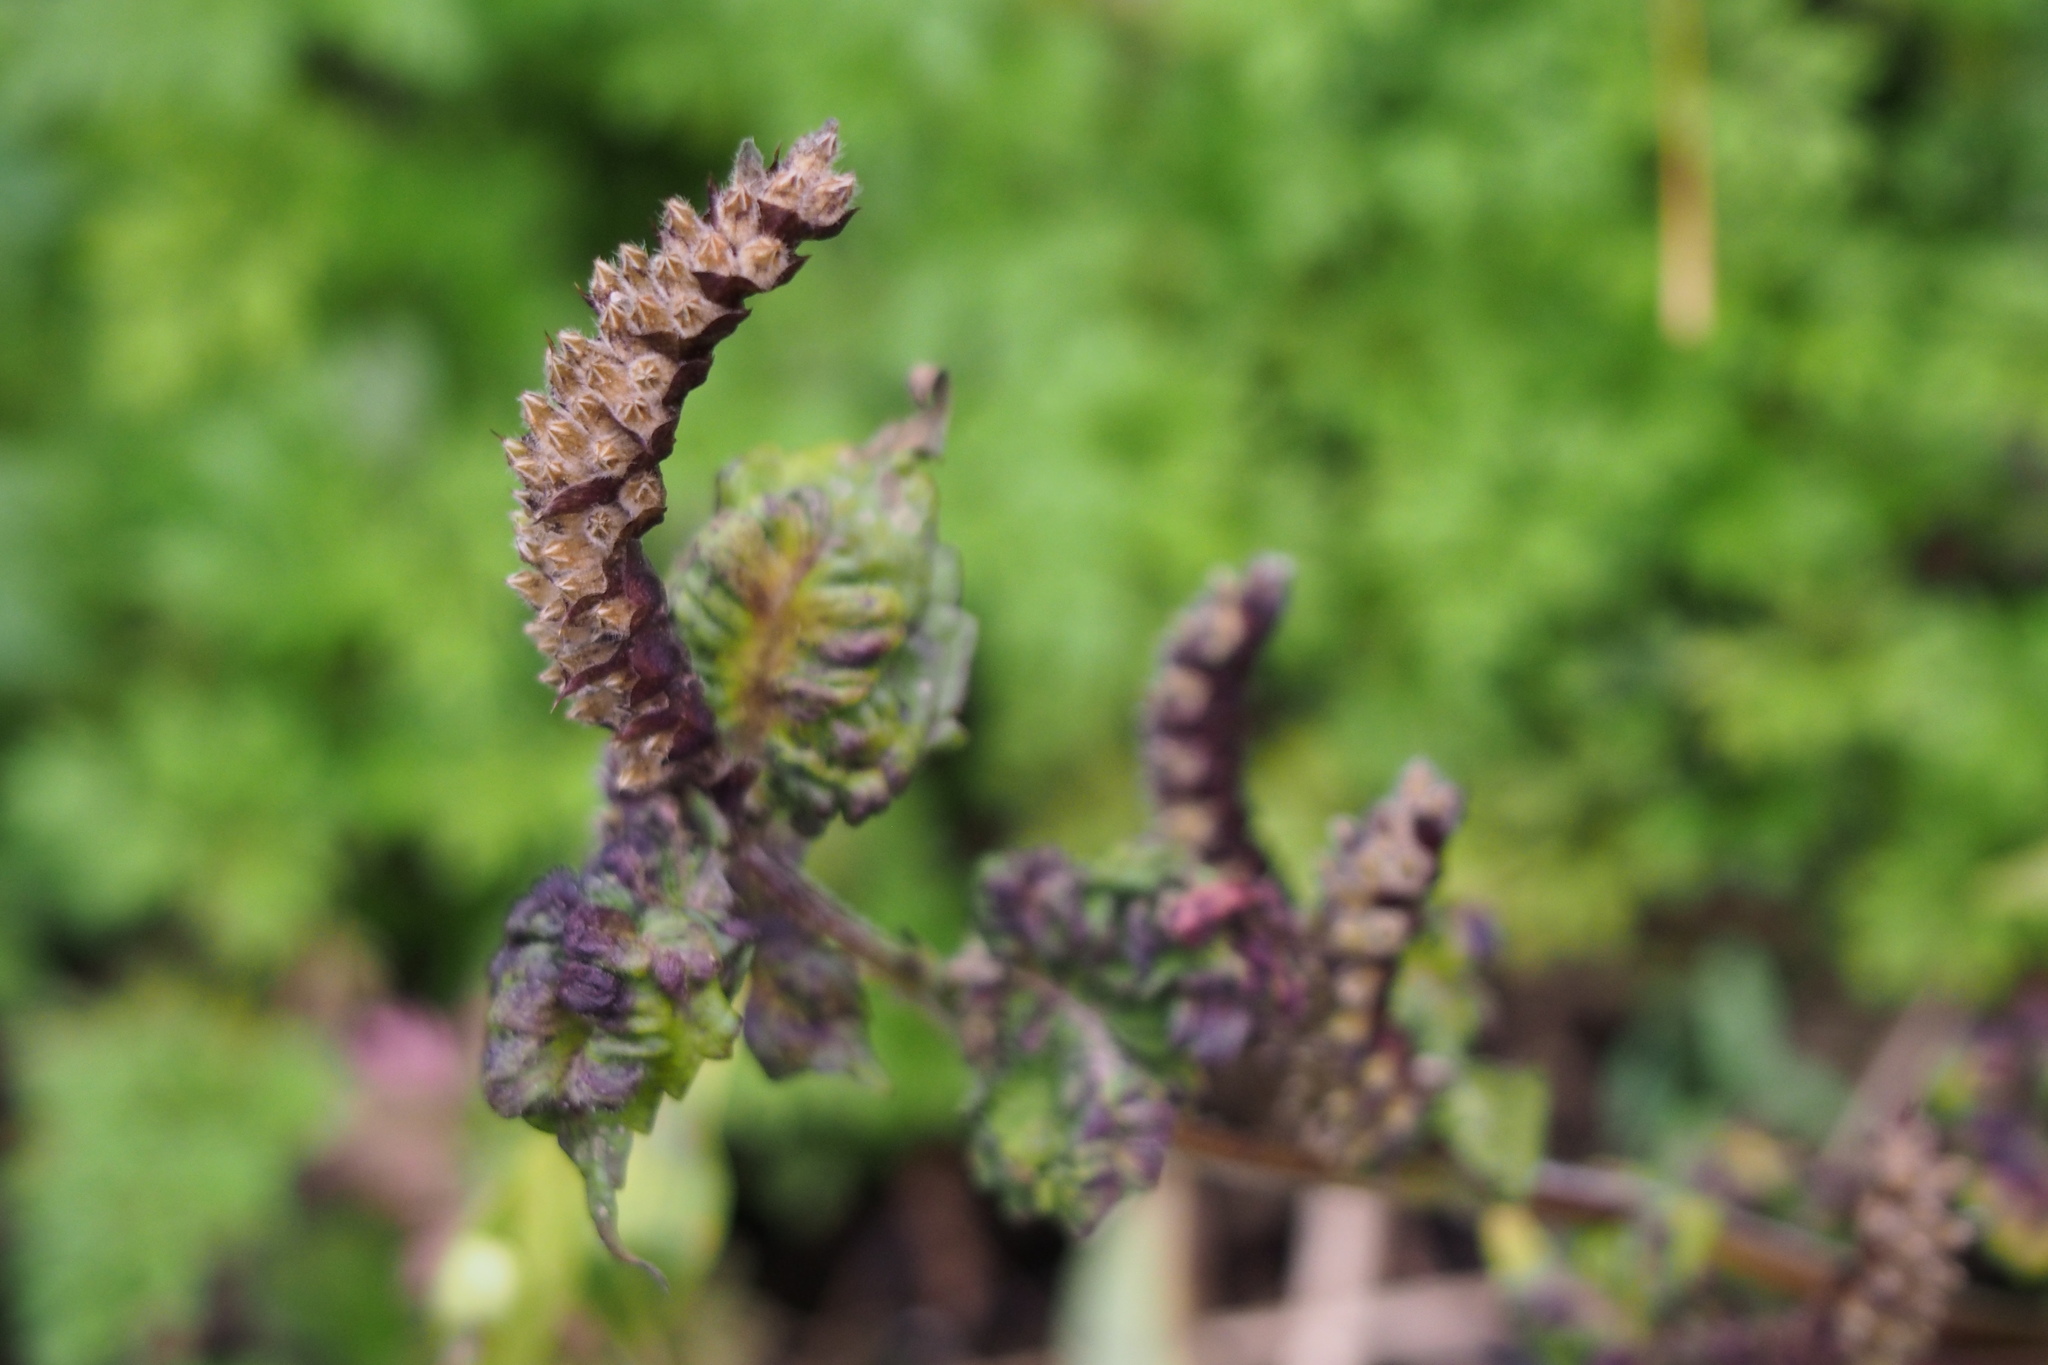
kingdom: Plantae
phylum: Tracheophyta
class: Magnoliopsida
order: Lamiales
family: Lamiaceae
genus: Elsholtzia
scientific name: Elsholtzia ciliata
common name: Ciliate elsholtzia
